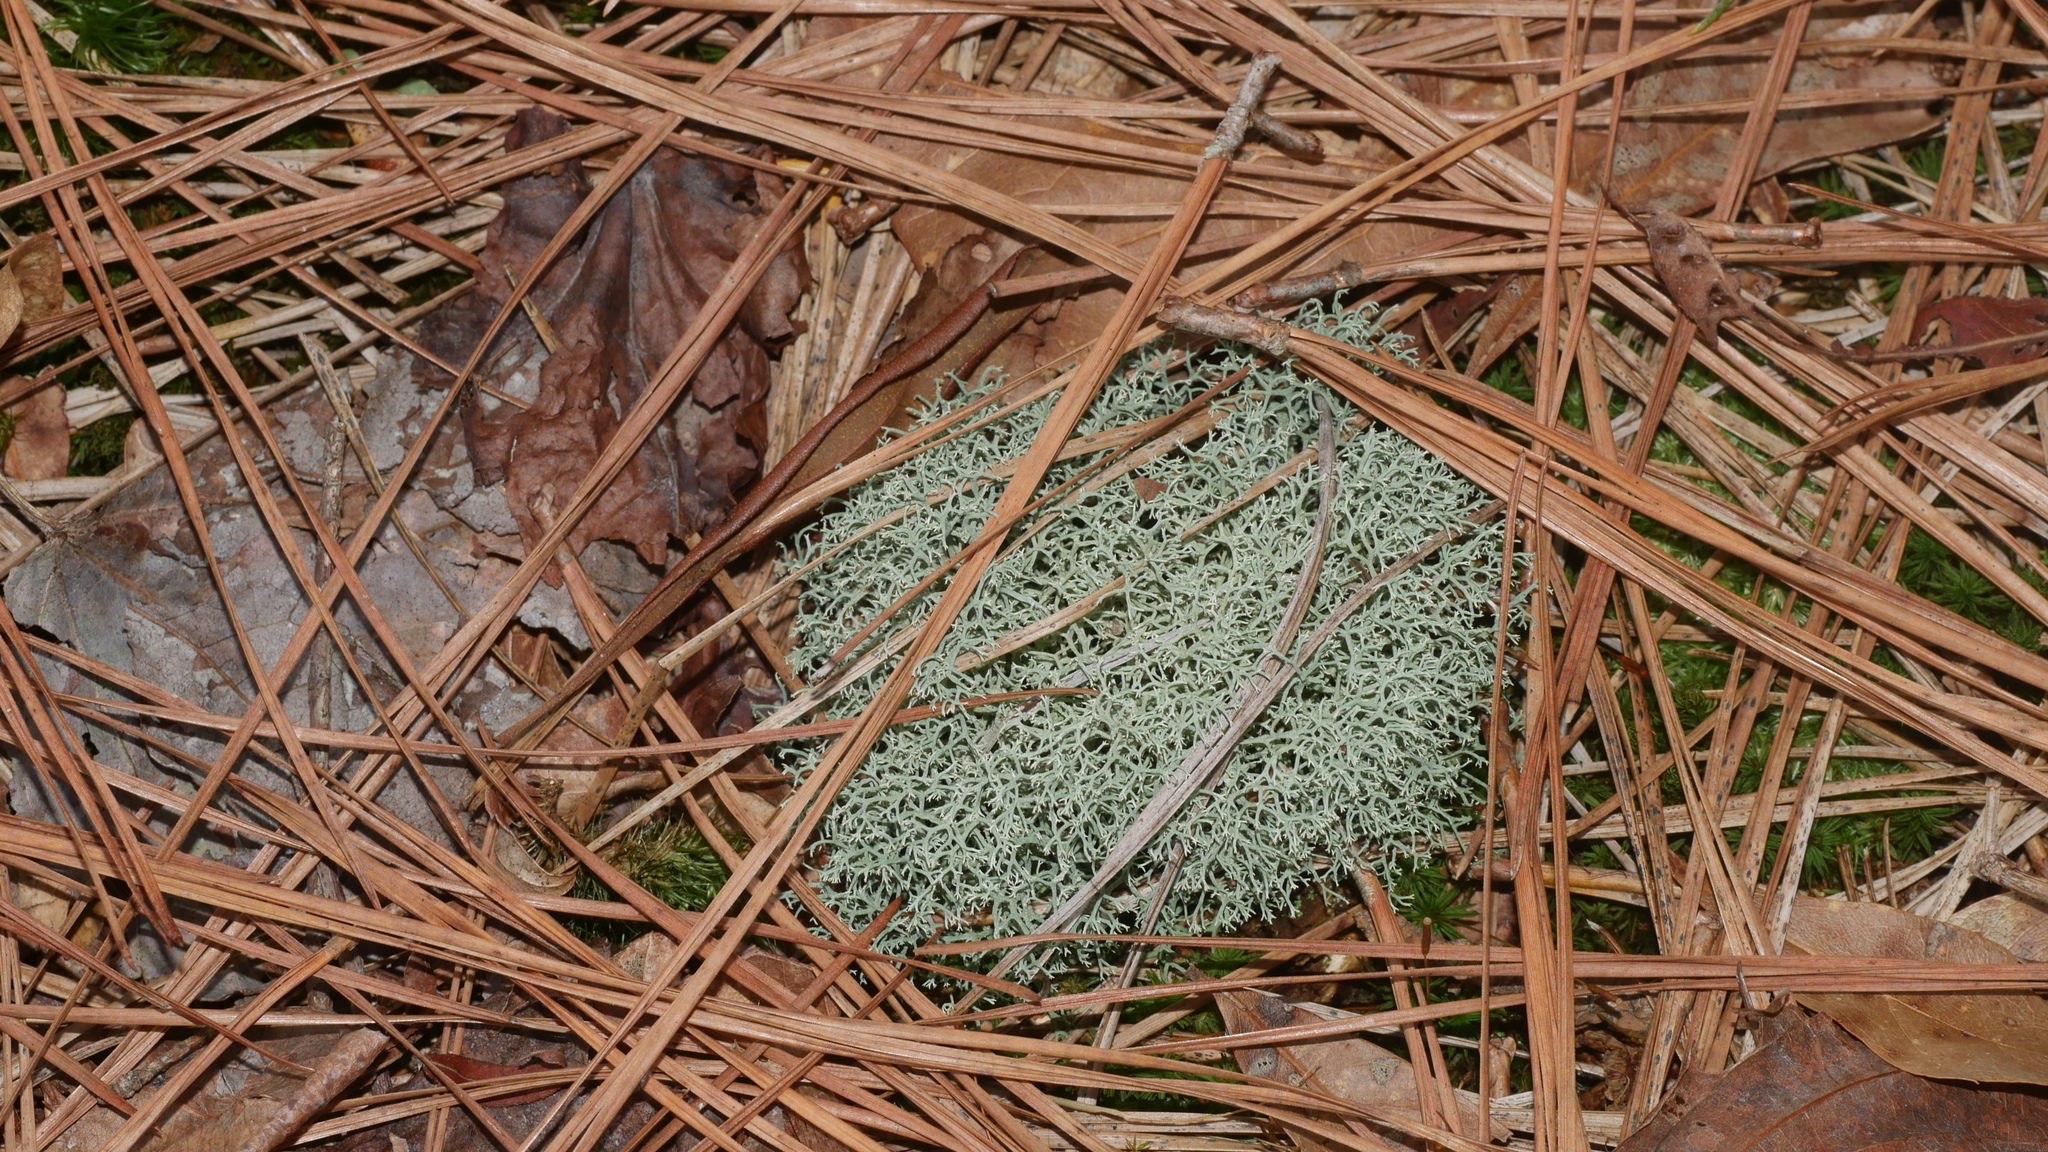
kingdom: Fungi
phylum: Ascomycota
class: Lecanoromycetes
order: Lecanorales
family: Cladoniaceae
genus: Cladonia
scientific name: Cladonia subtenuis
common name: Dixie reindeer lichen
